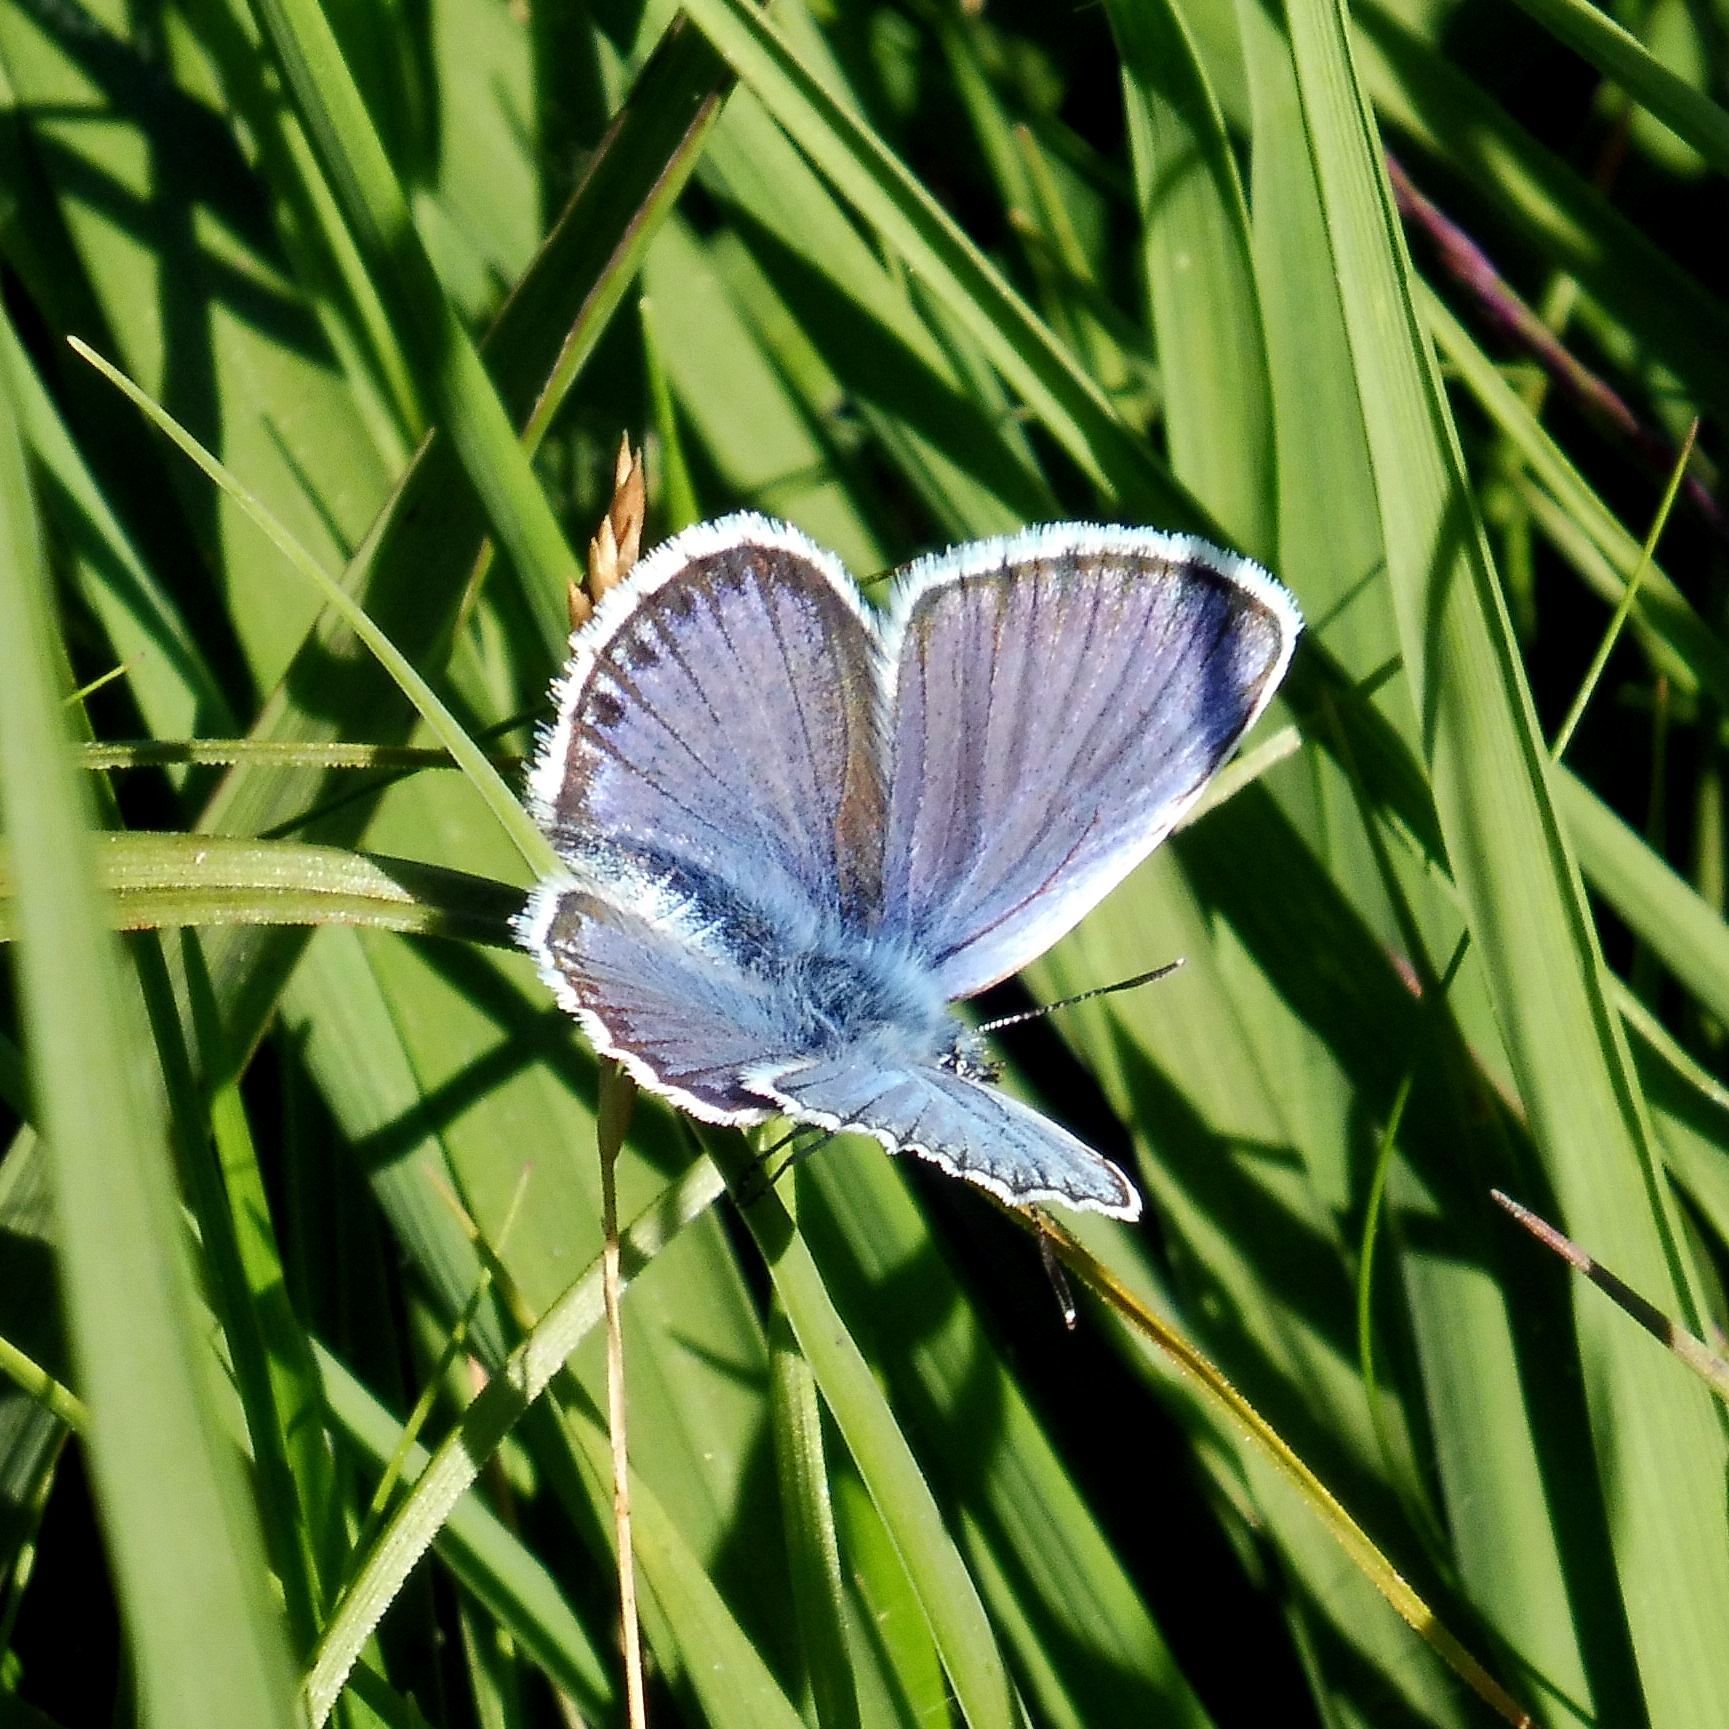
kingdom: Animalia
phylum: Arthropoda
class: Insecta
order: Lepidoptera
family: Lycaenidae
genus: Plebejus
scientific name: Plebejus argus
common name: Silver-studded blue
